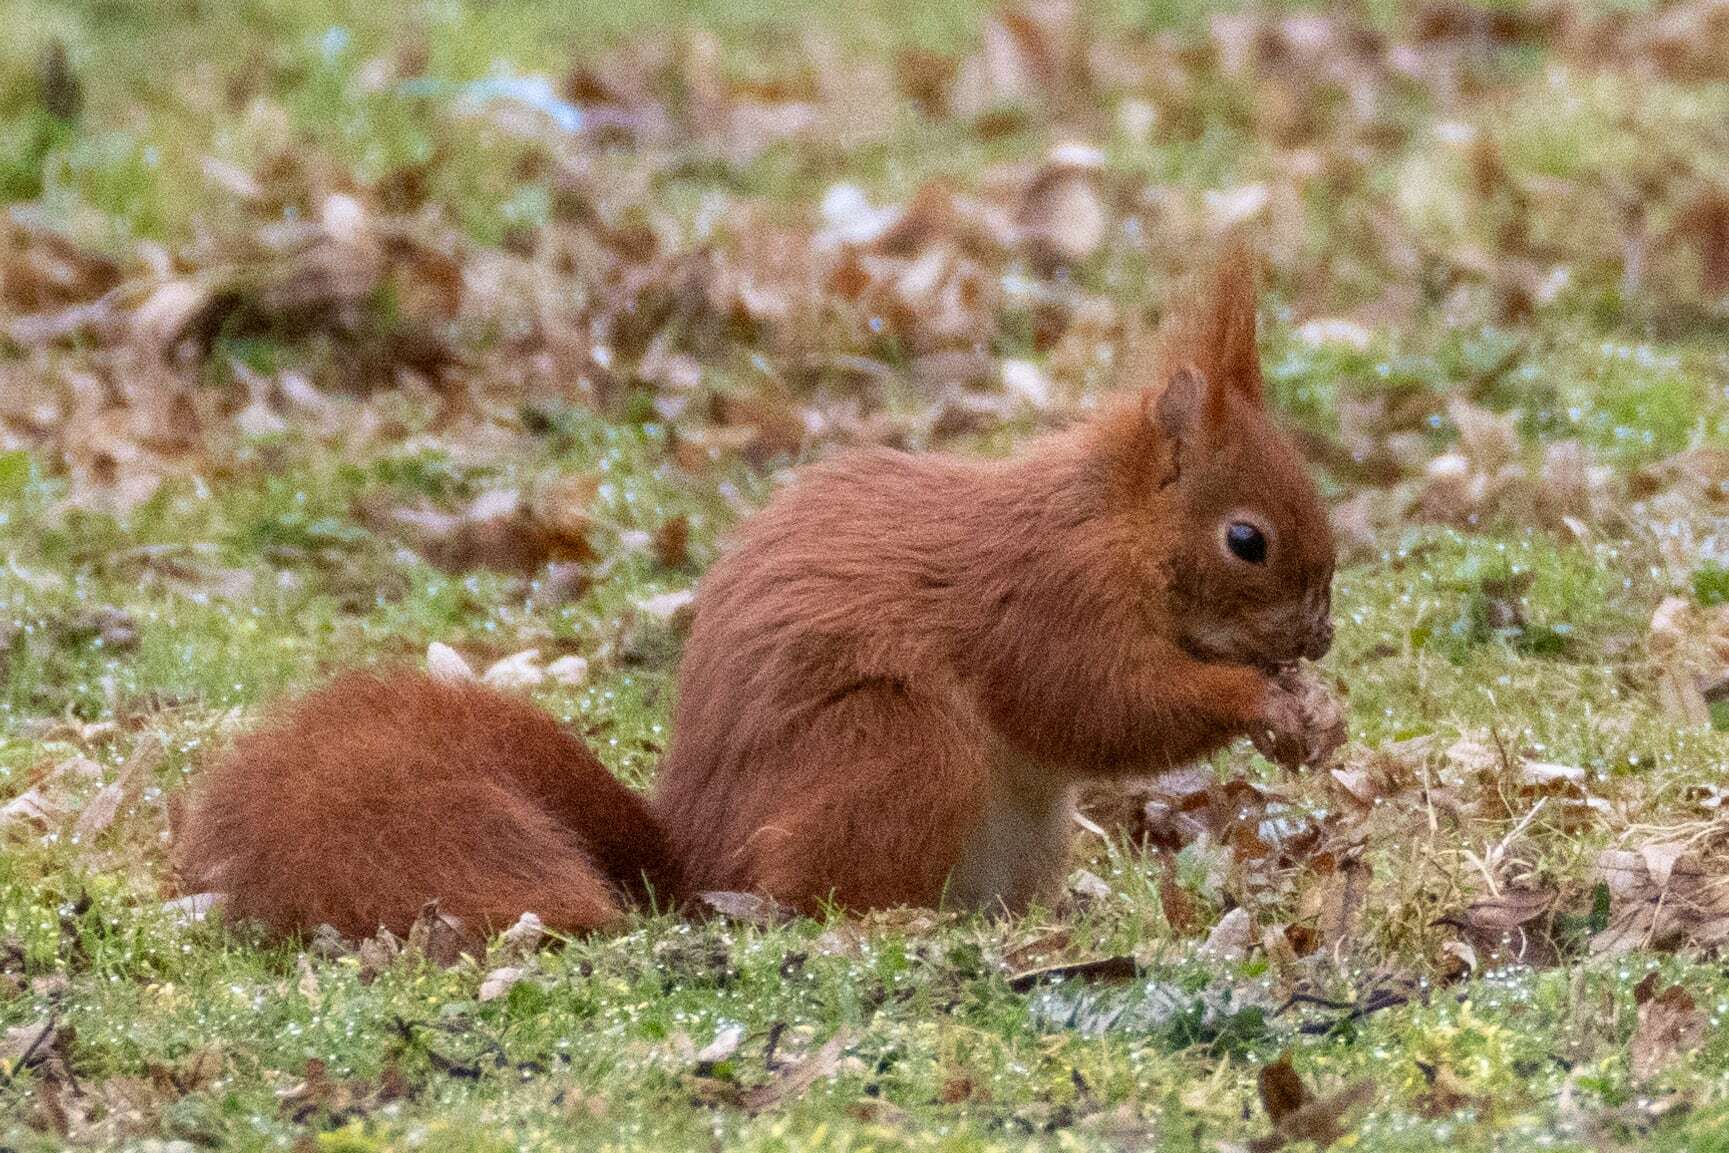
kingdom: Animalia
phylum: Chordata
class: Mammalia
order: Rodentia
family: Sciuridae
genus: Sciurus
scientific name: Sciurus vulgaris
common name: Eurasian red squirrel
